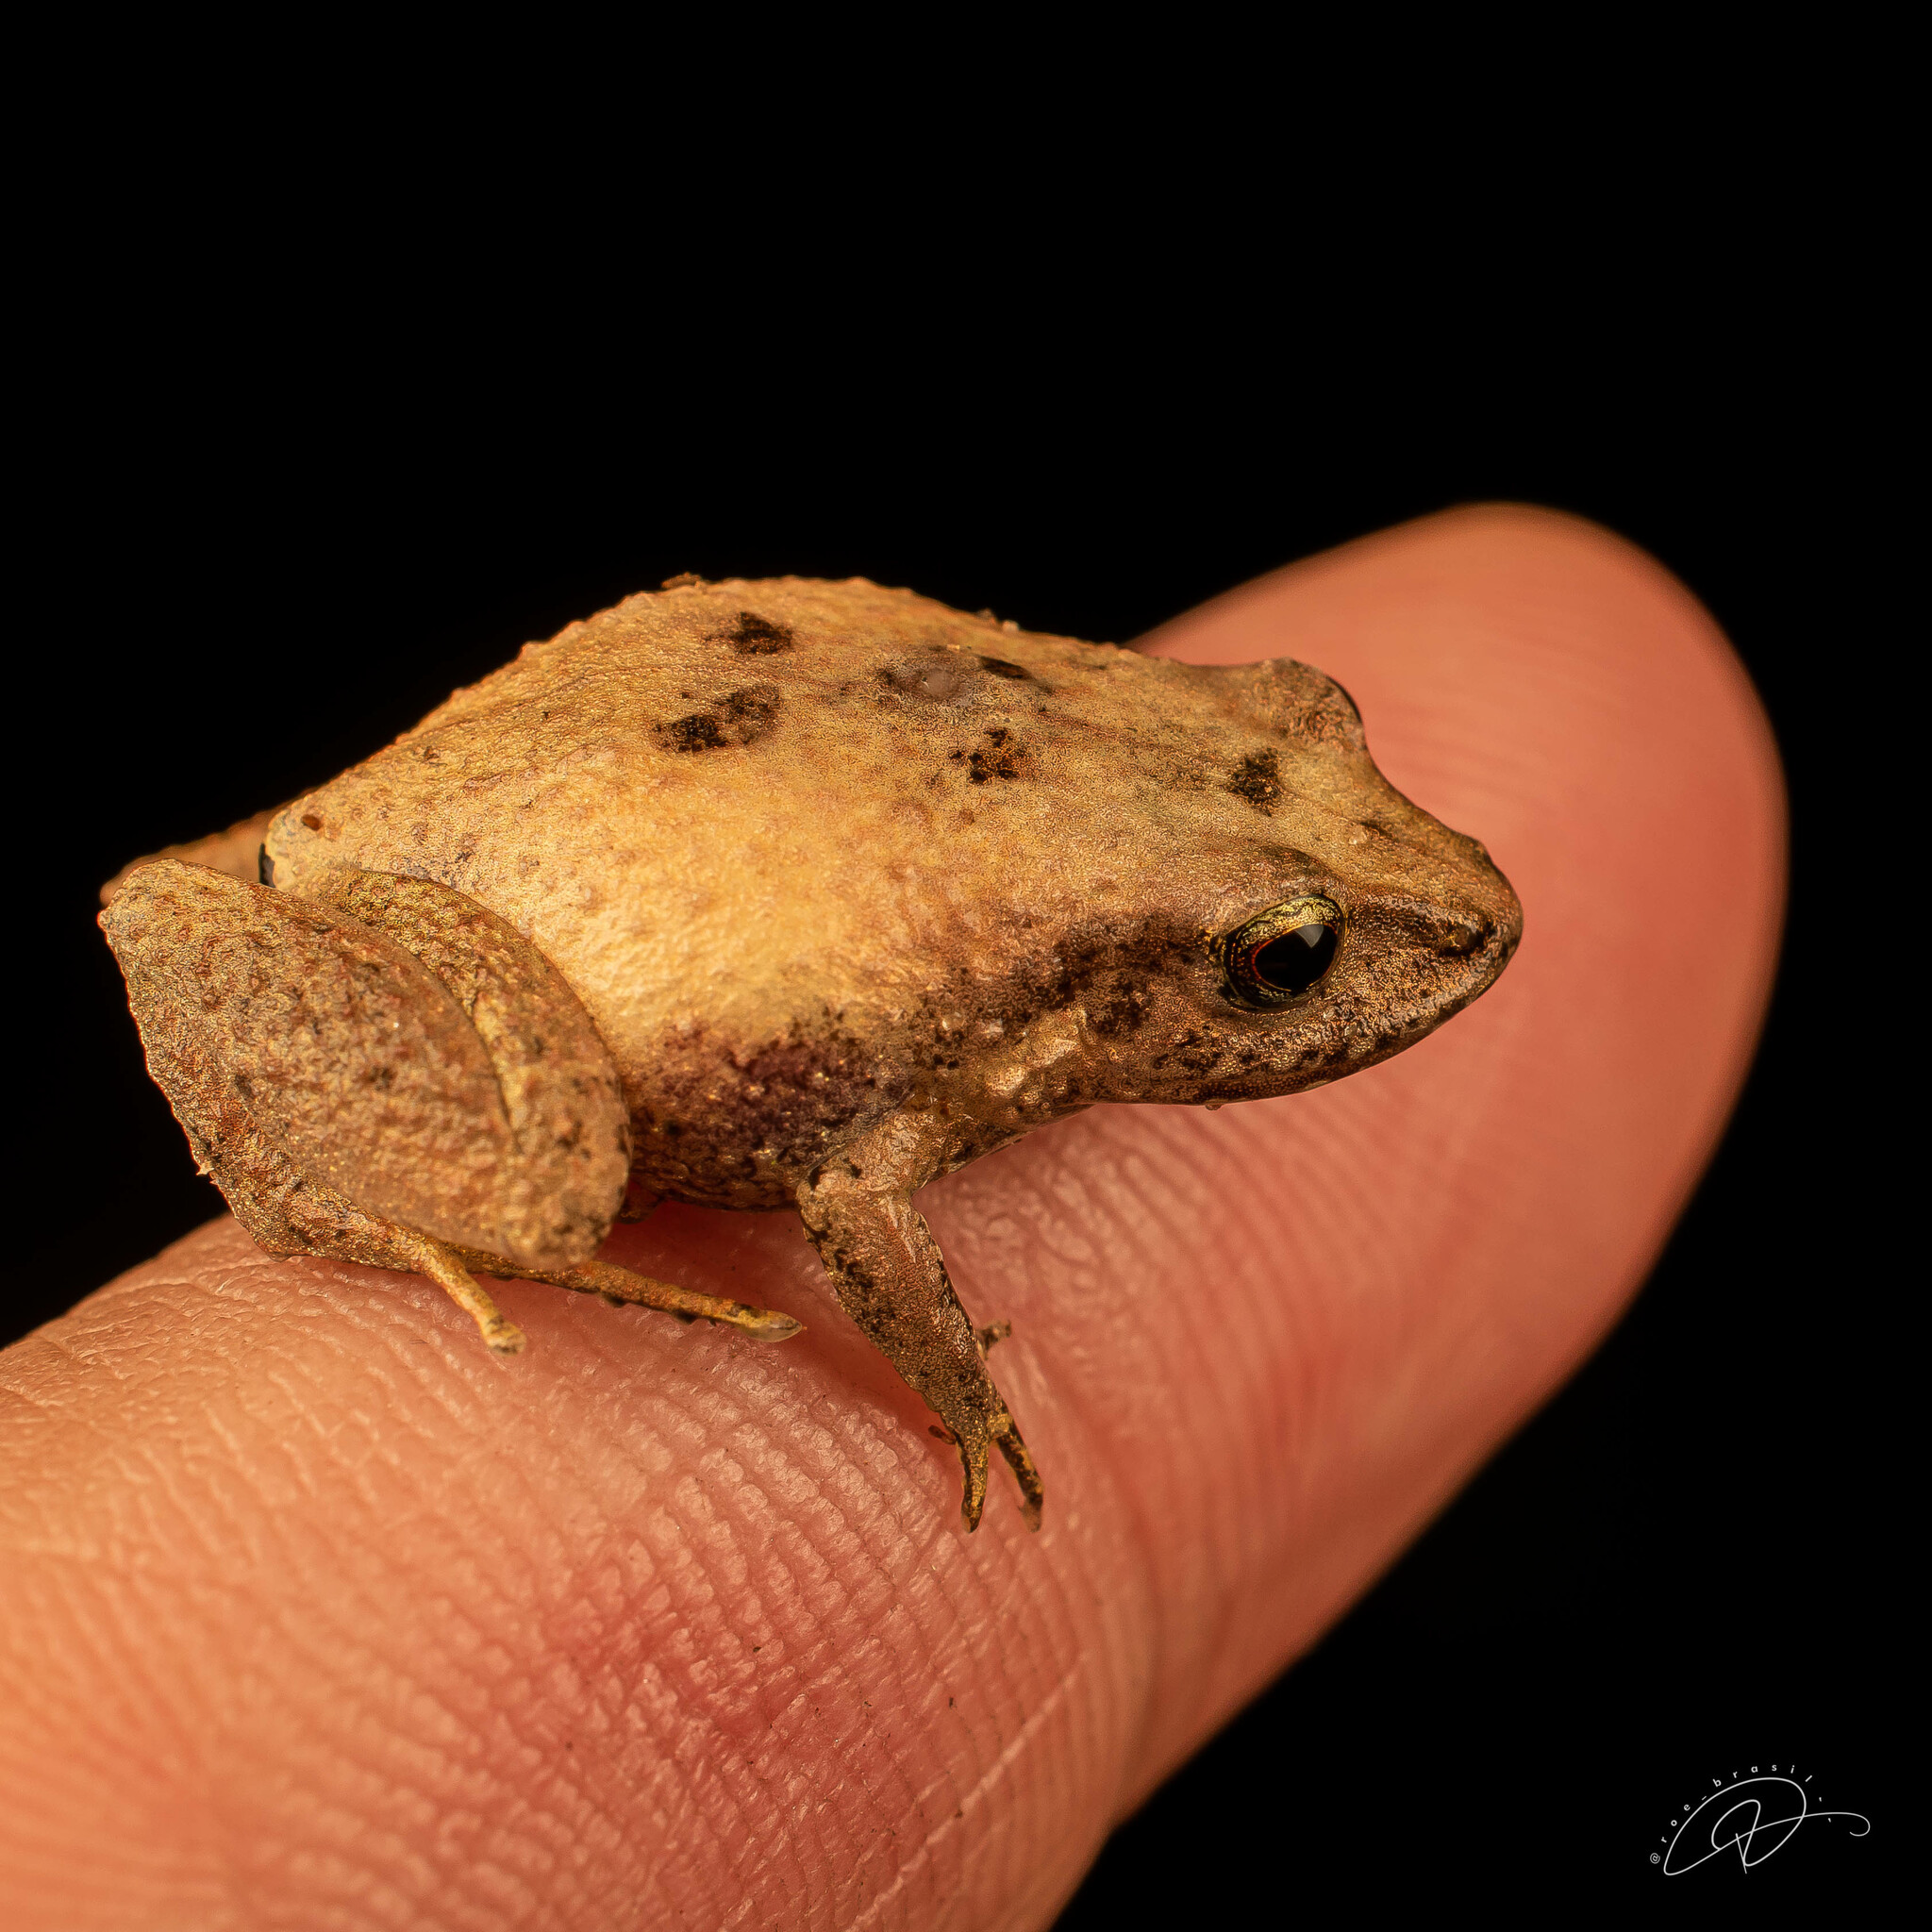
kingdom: Animalia
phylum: Chordata
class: Amphibia
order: Anura
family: Brachycephalidae
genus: Ischnocnema
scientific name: Ischnocnema parva
